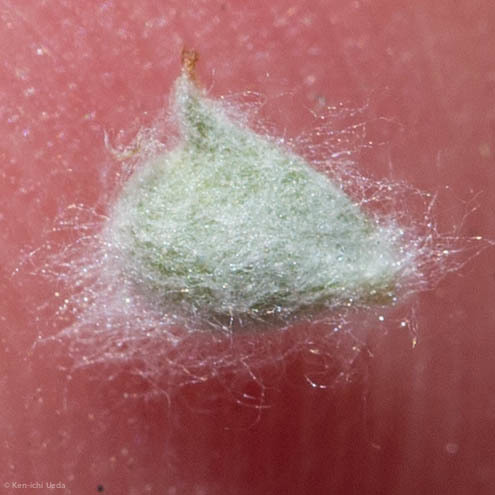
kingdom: Plantae
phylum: Tracheophyta
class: Magnoliopsida
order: Asterales
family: Asteraceae
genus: Bombycilaena
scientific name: Bombycilaena californica
